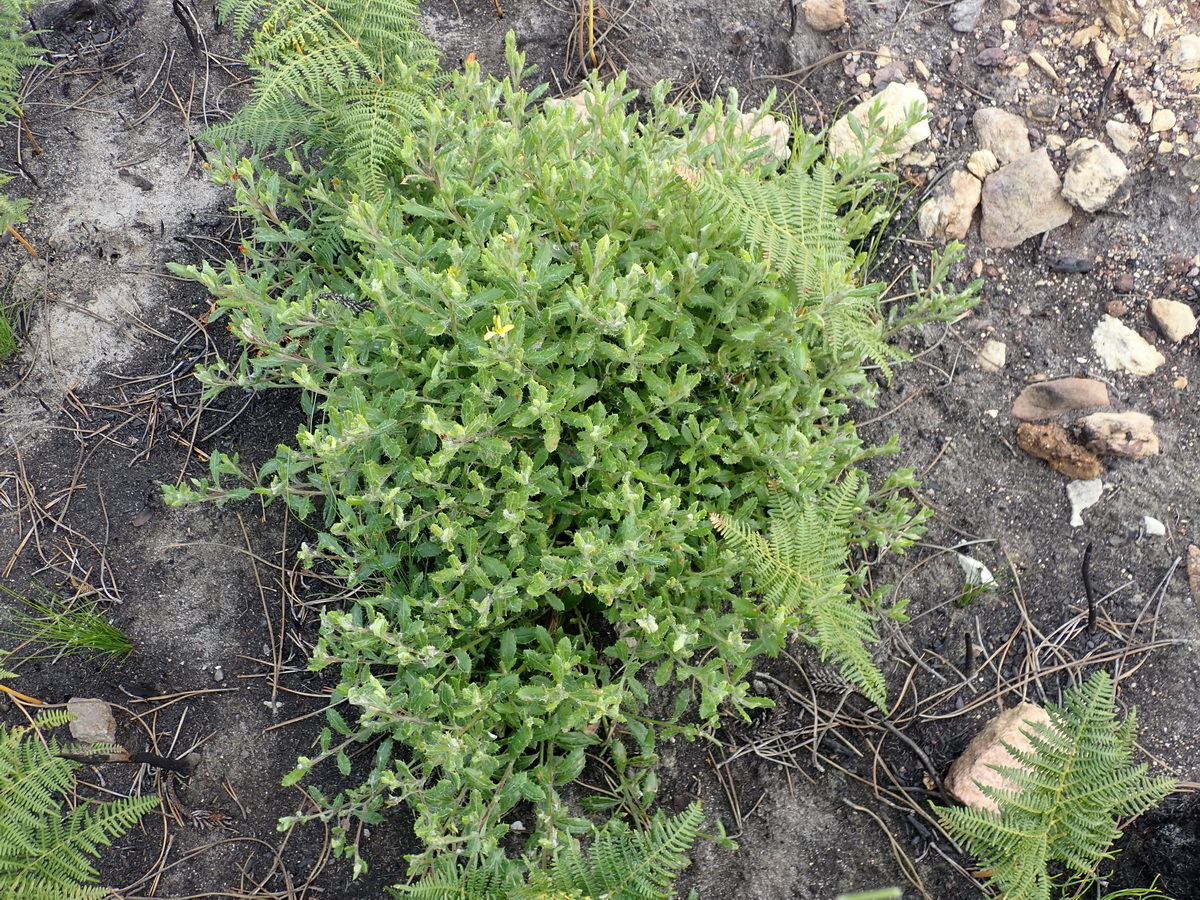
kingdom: Plantae
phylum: Tracheophyta
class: Magnoliopsida
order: Asterales
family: Asteraceae
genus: Cullumia
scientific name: Cullumia aculeata
